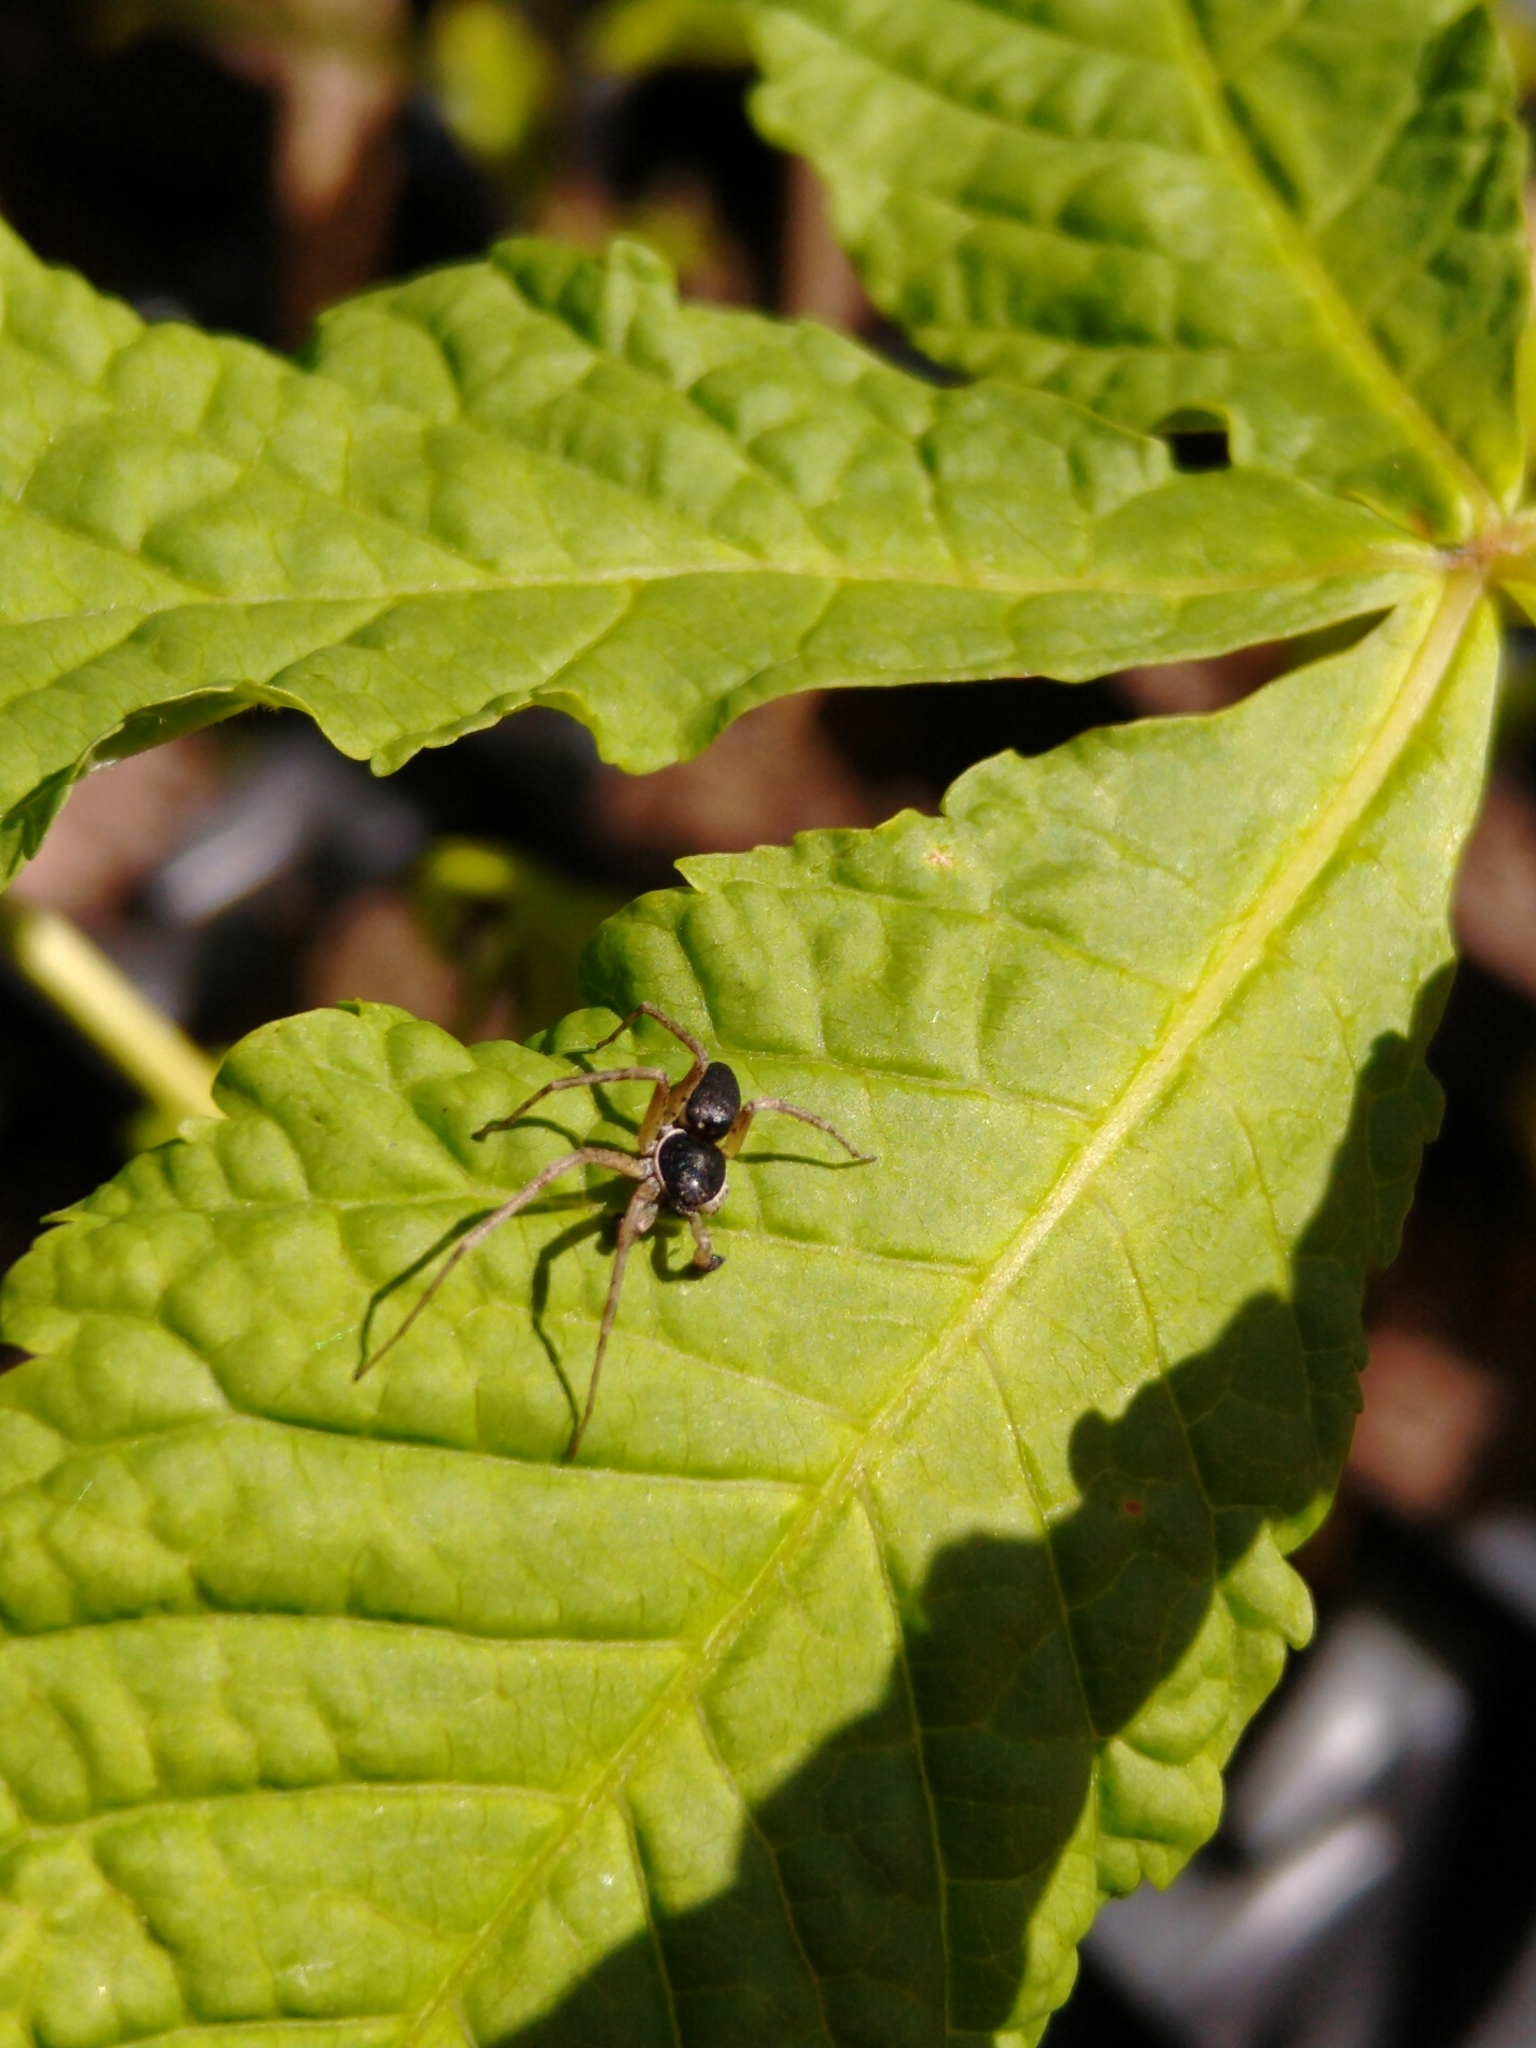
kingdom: Animalia
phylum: Arthropoda
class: Arachnida
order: Araneae
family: Philodromidae
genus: Philodromus
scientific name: Philodromus dispar
